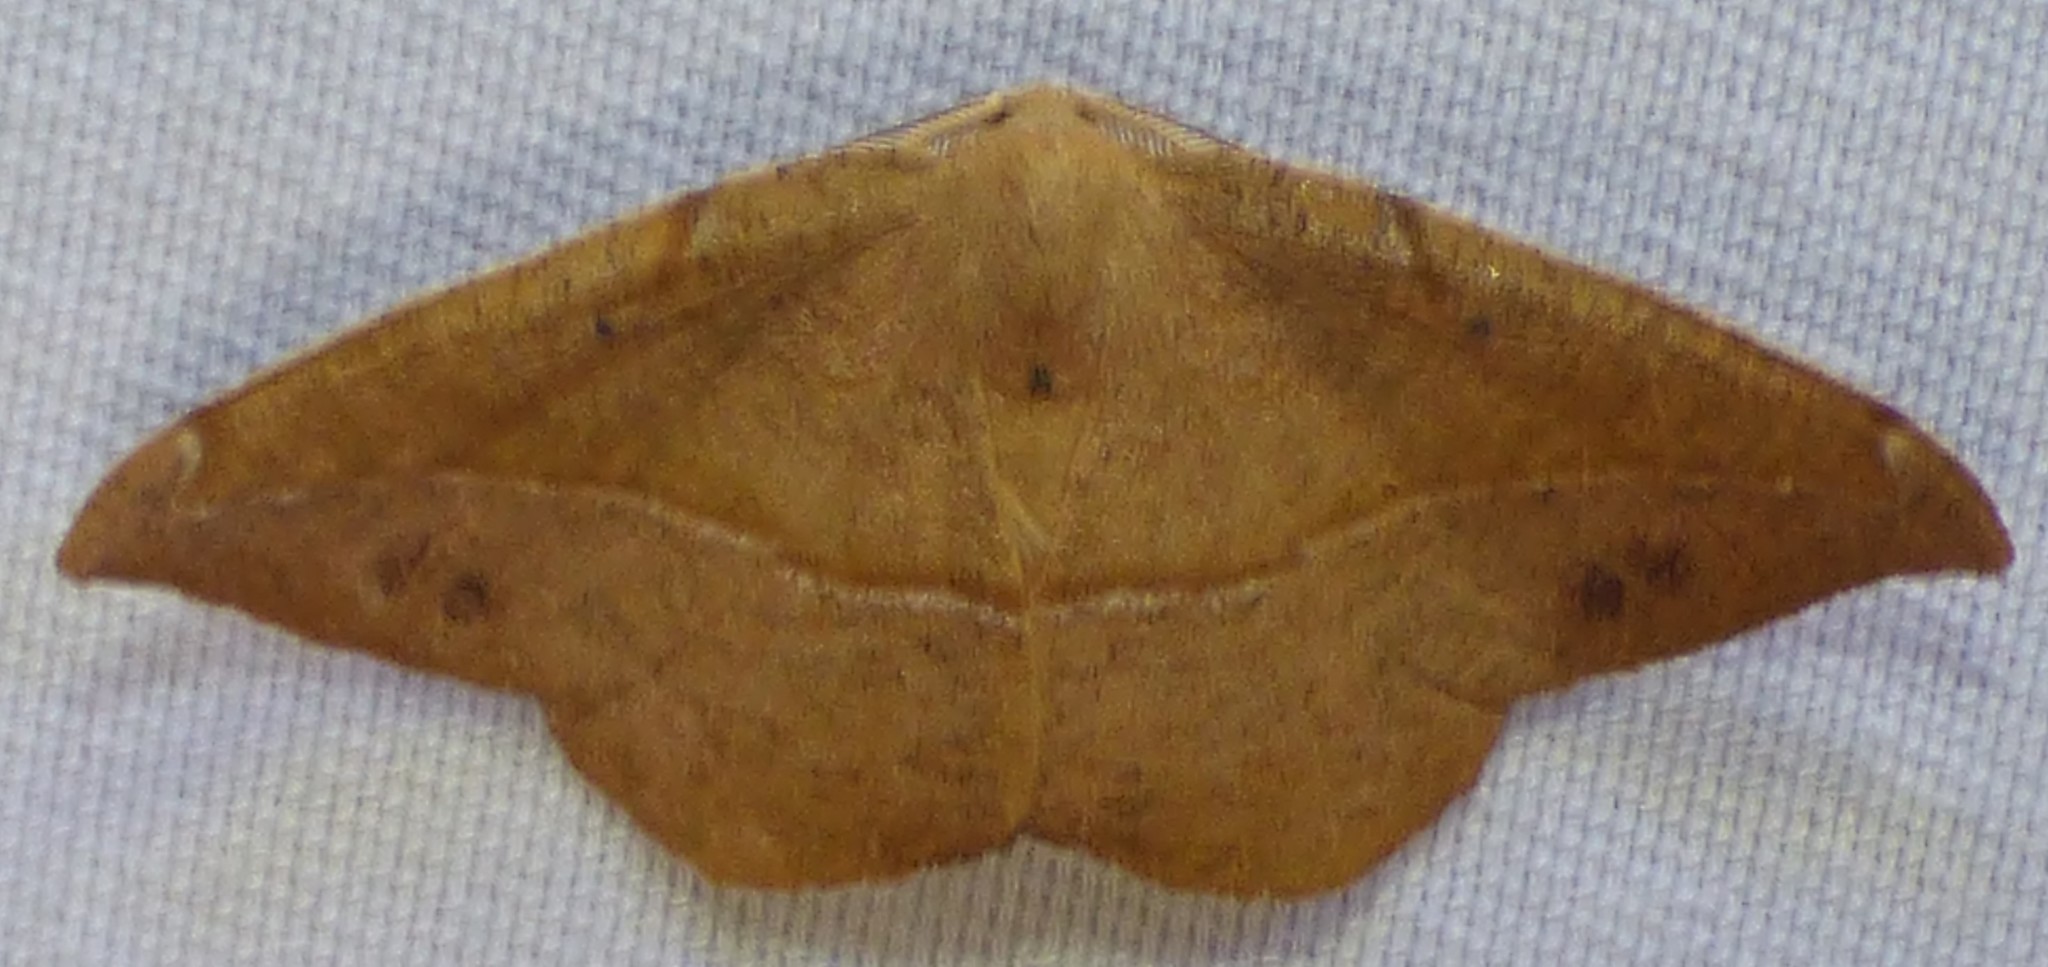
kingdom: Animalia
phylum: Arthropoda
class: Insecta
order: Lepidoptera
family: Geometridae
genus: Patalene
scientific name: Patalene olyzonaria
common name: Juniper geometer moth
